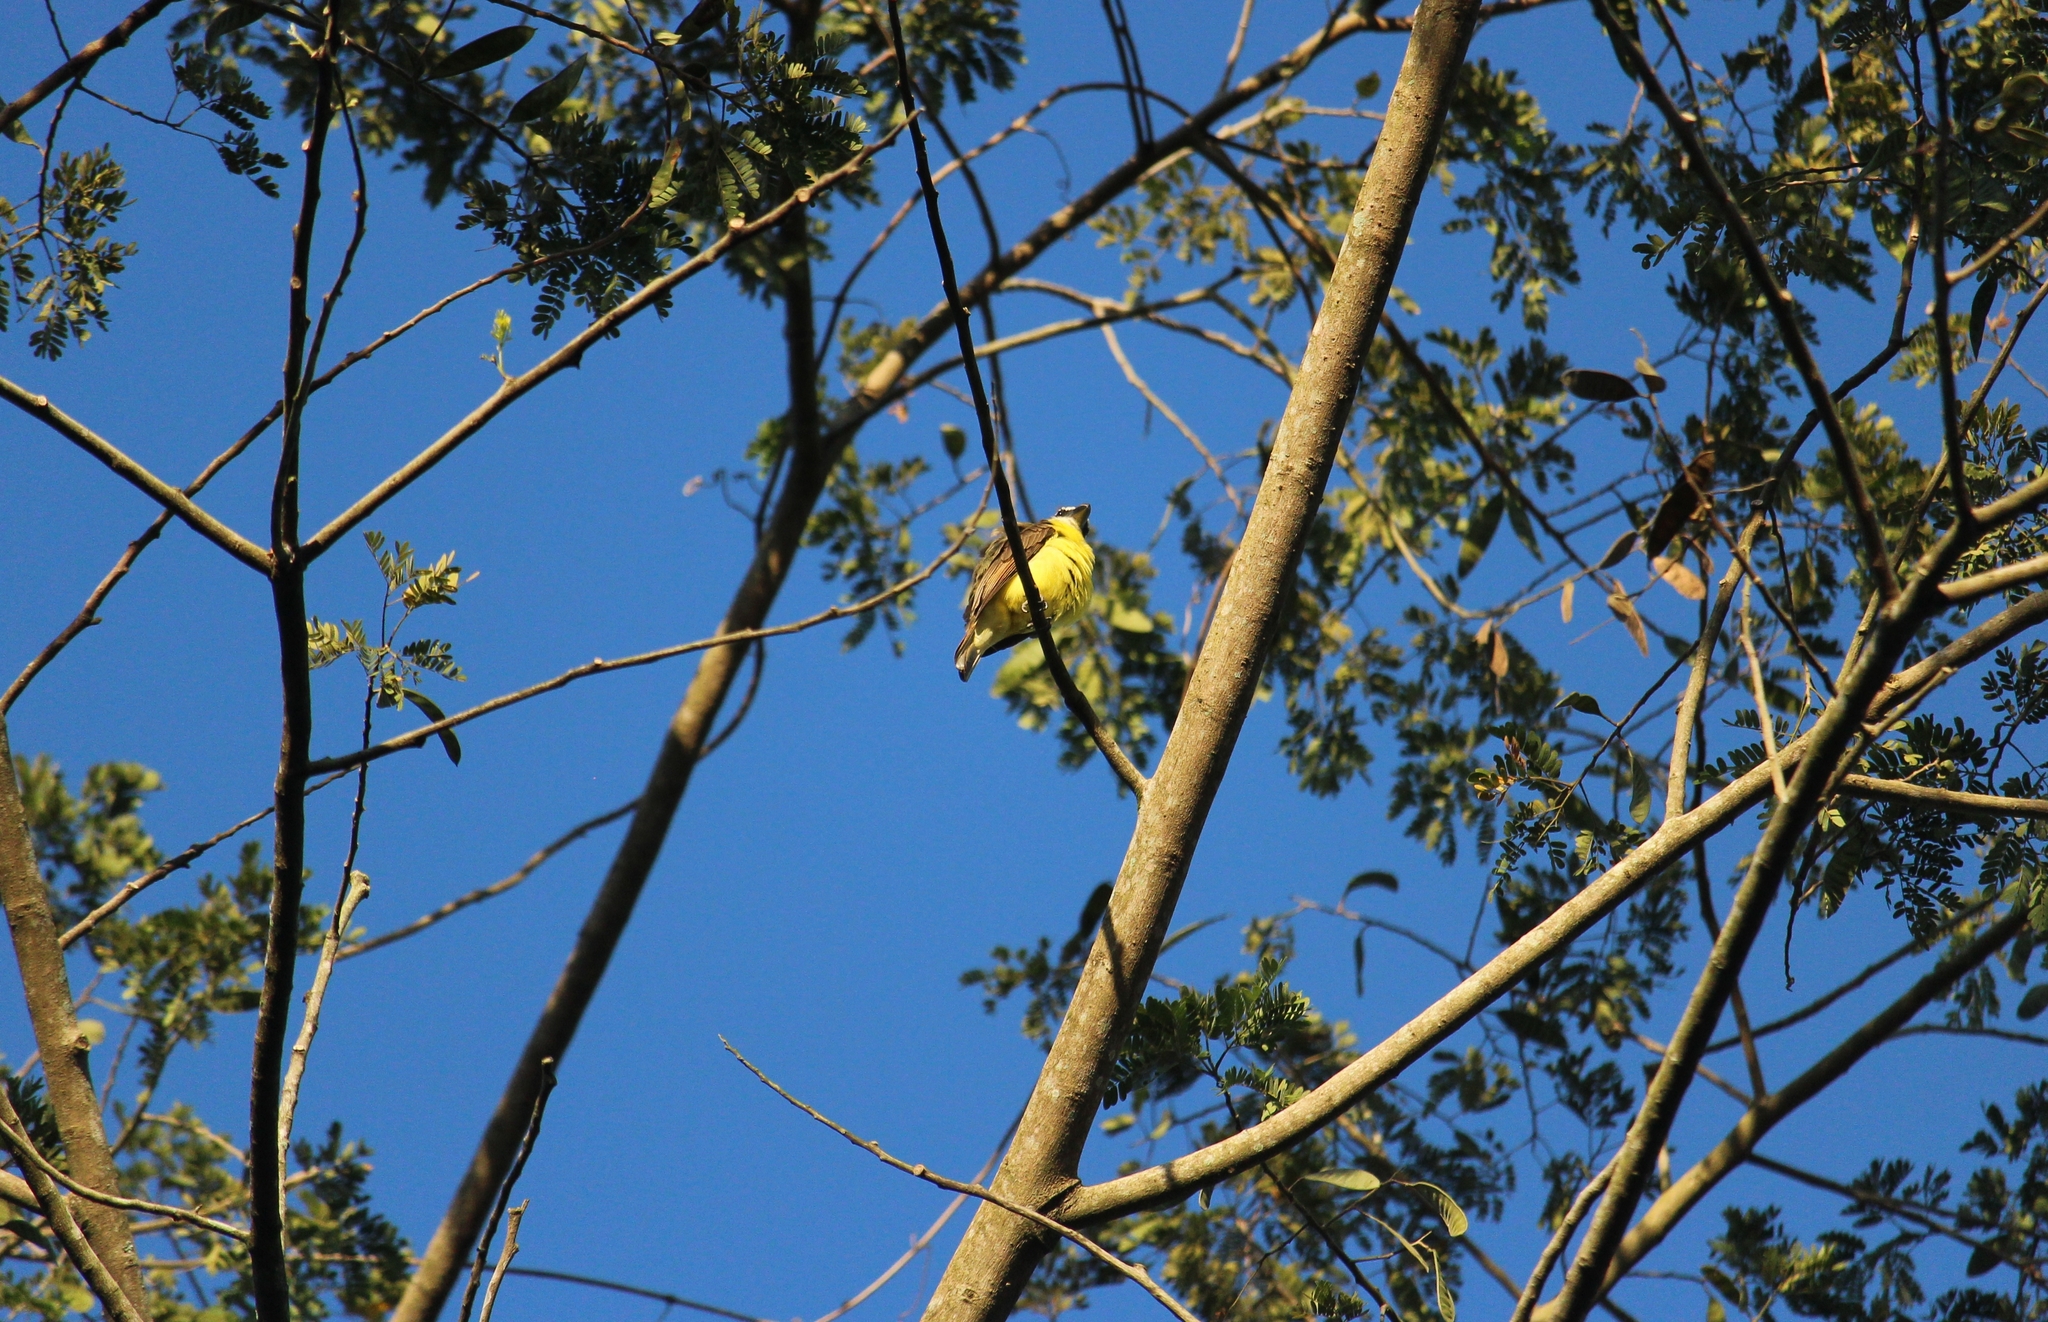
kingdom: Animalia
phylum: Chordata
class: Aves
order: Passeriformes
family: Tyrannidae
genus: Megarynchus
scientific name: Megarynchus pitangua
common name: Boat-billed flycatcher
